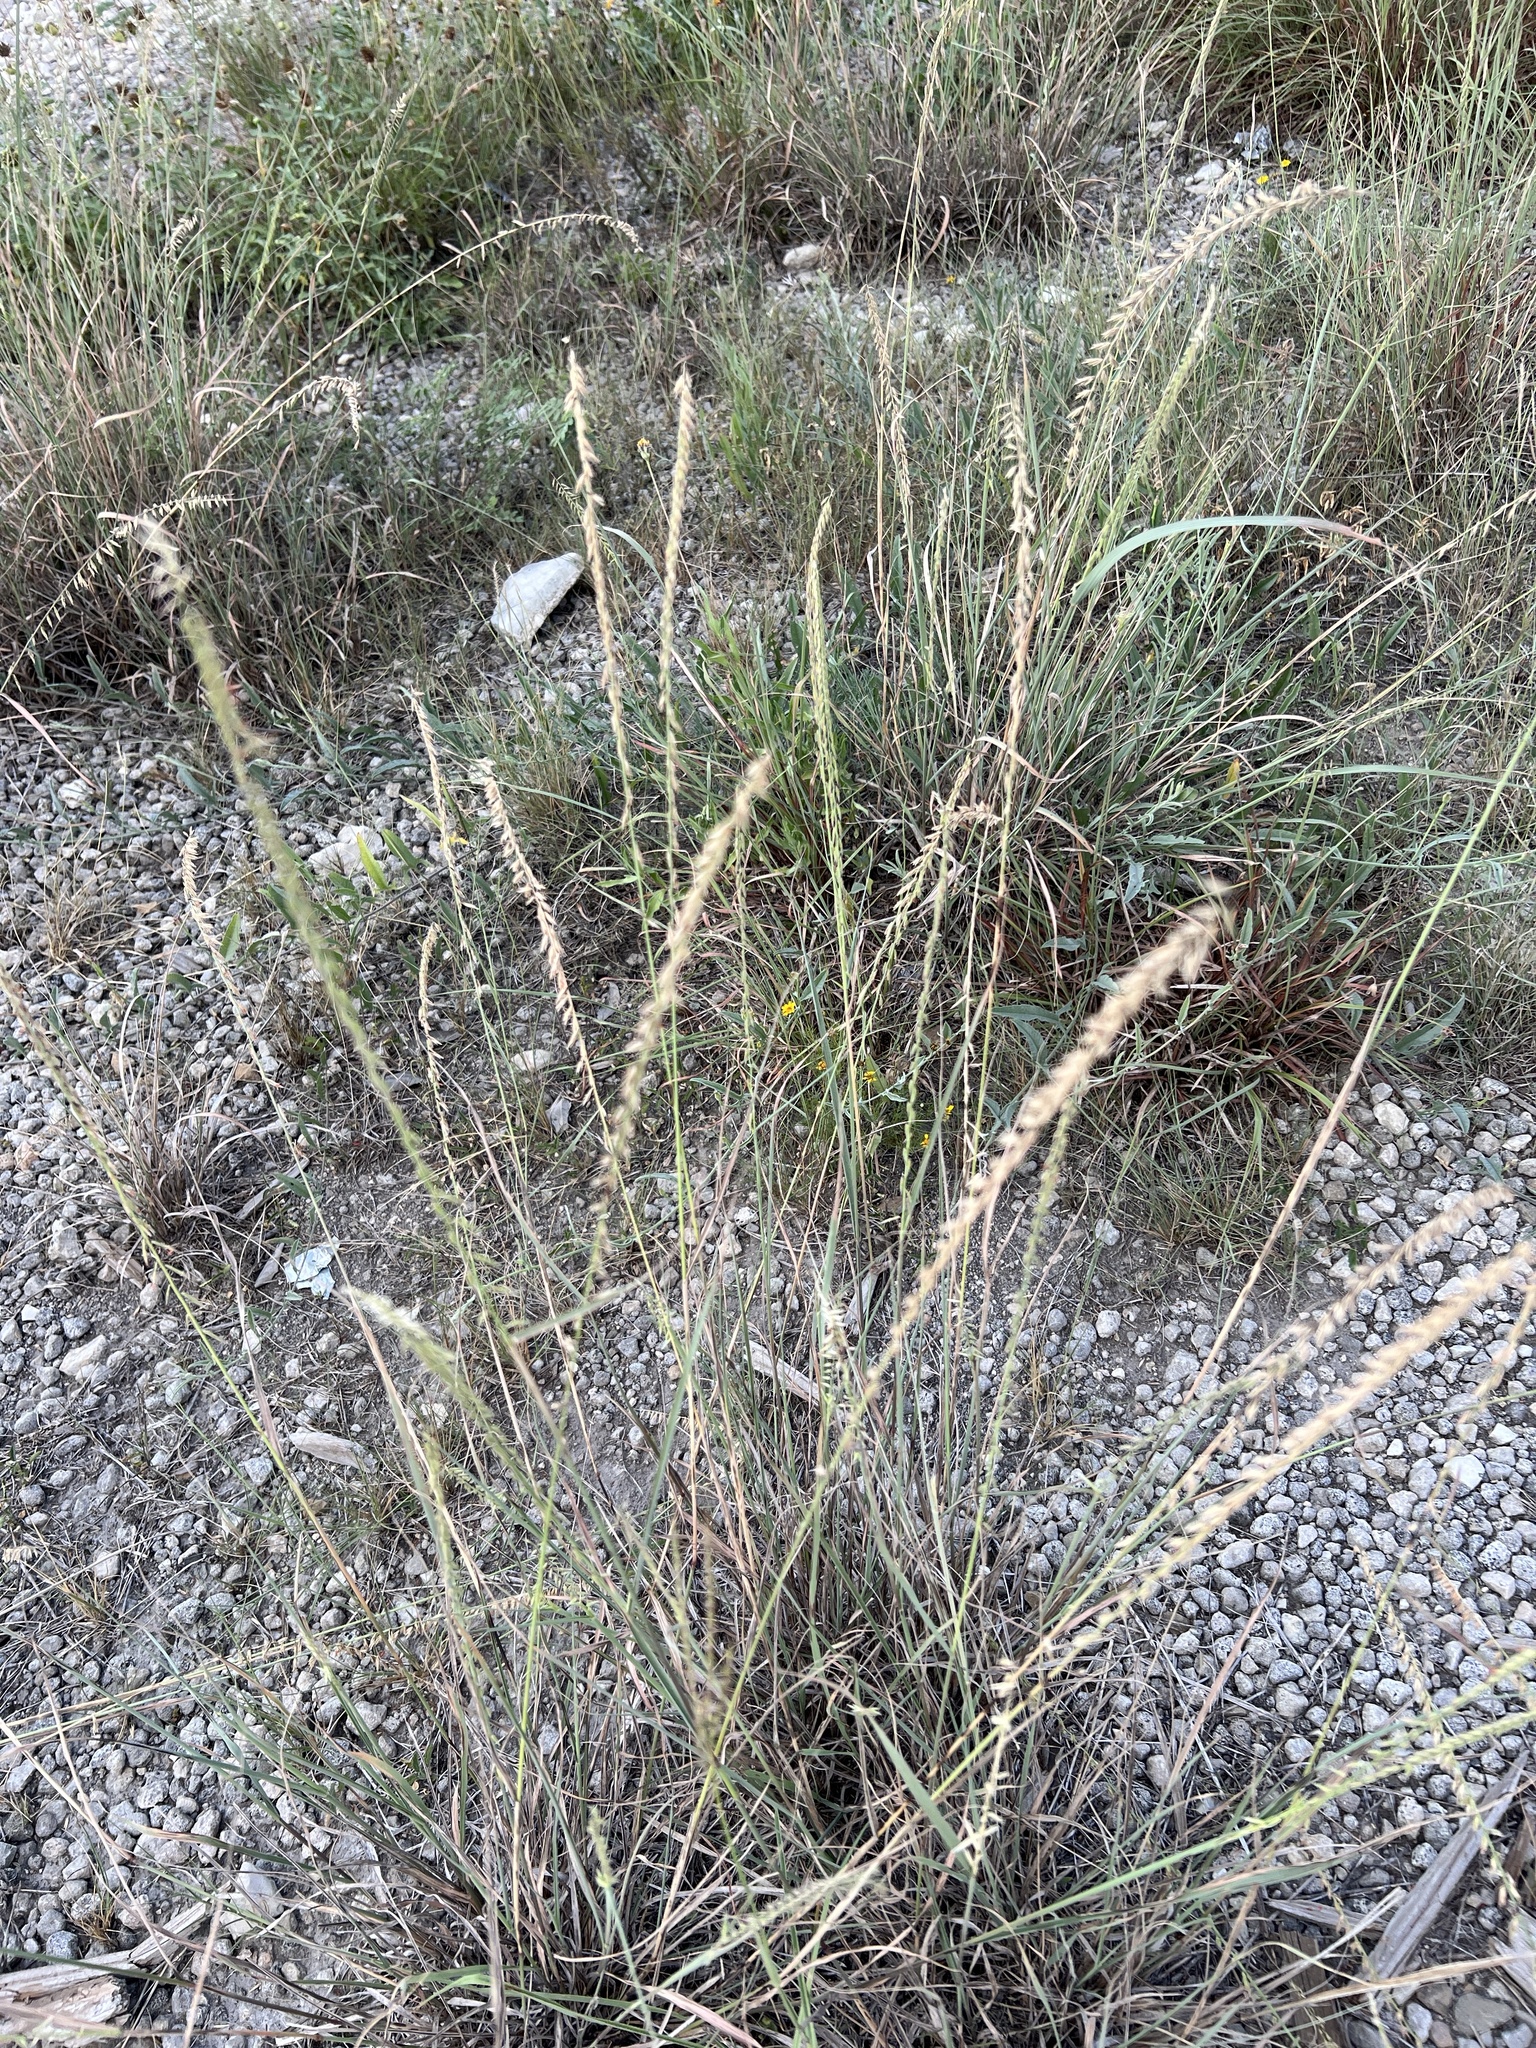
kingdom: Plantae
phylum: Tracheophyta
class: Liliopsida
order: Poales
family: Poaceae
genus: Bouteloua
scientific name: Bouteloua curtipendula
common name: Side-oats grama
